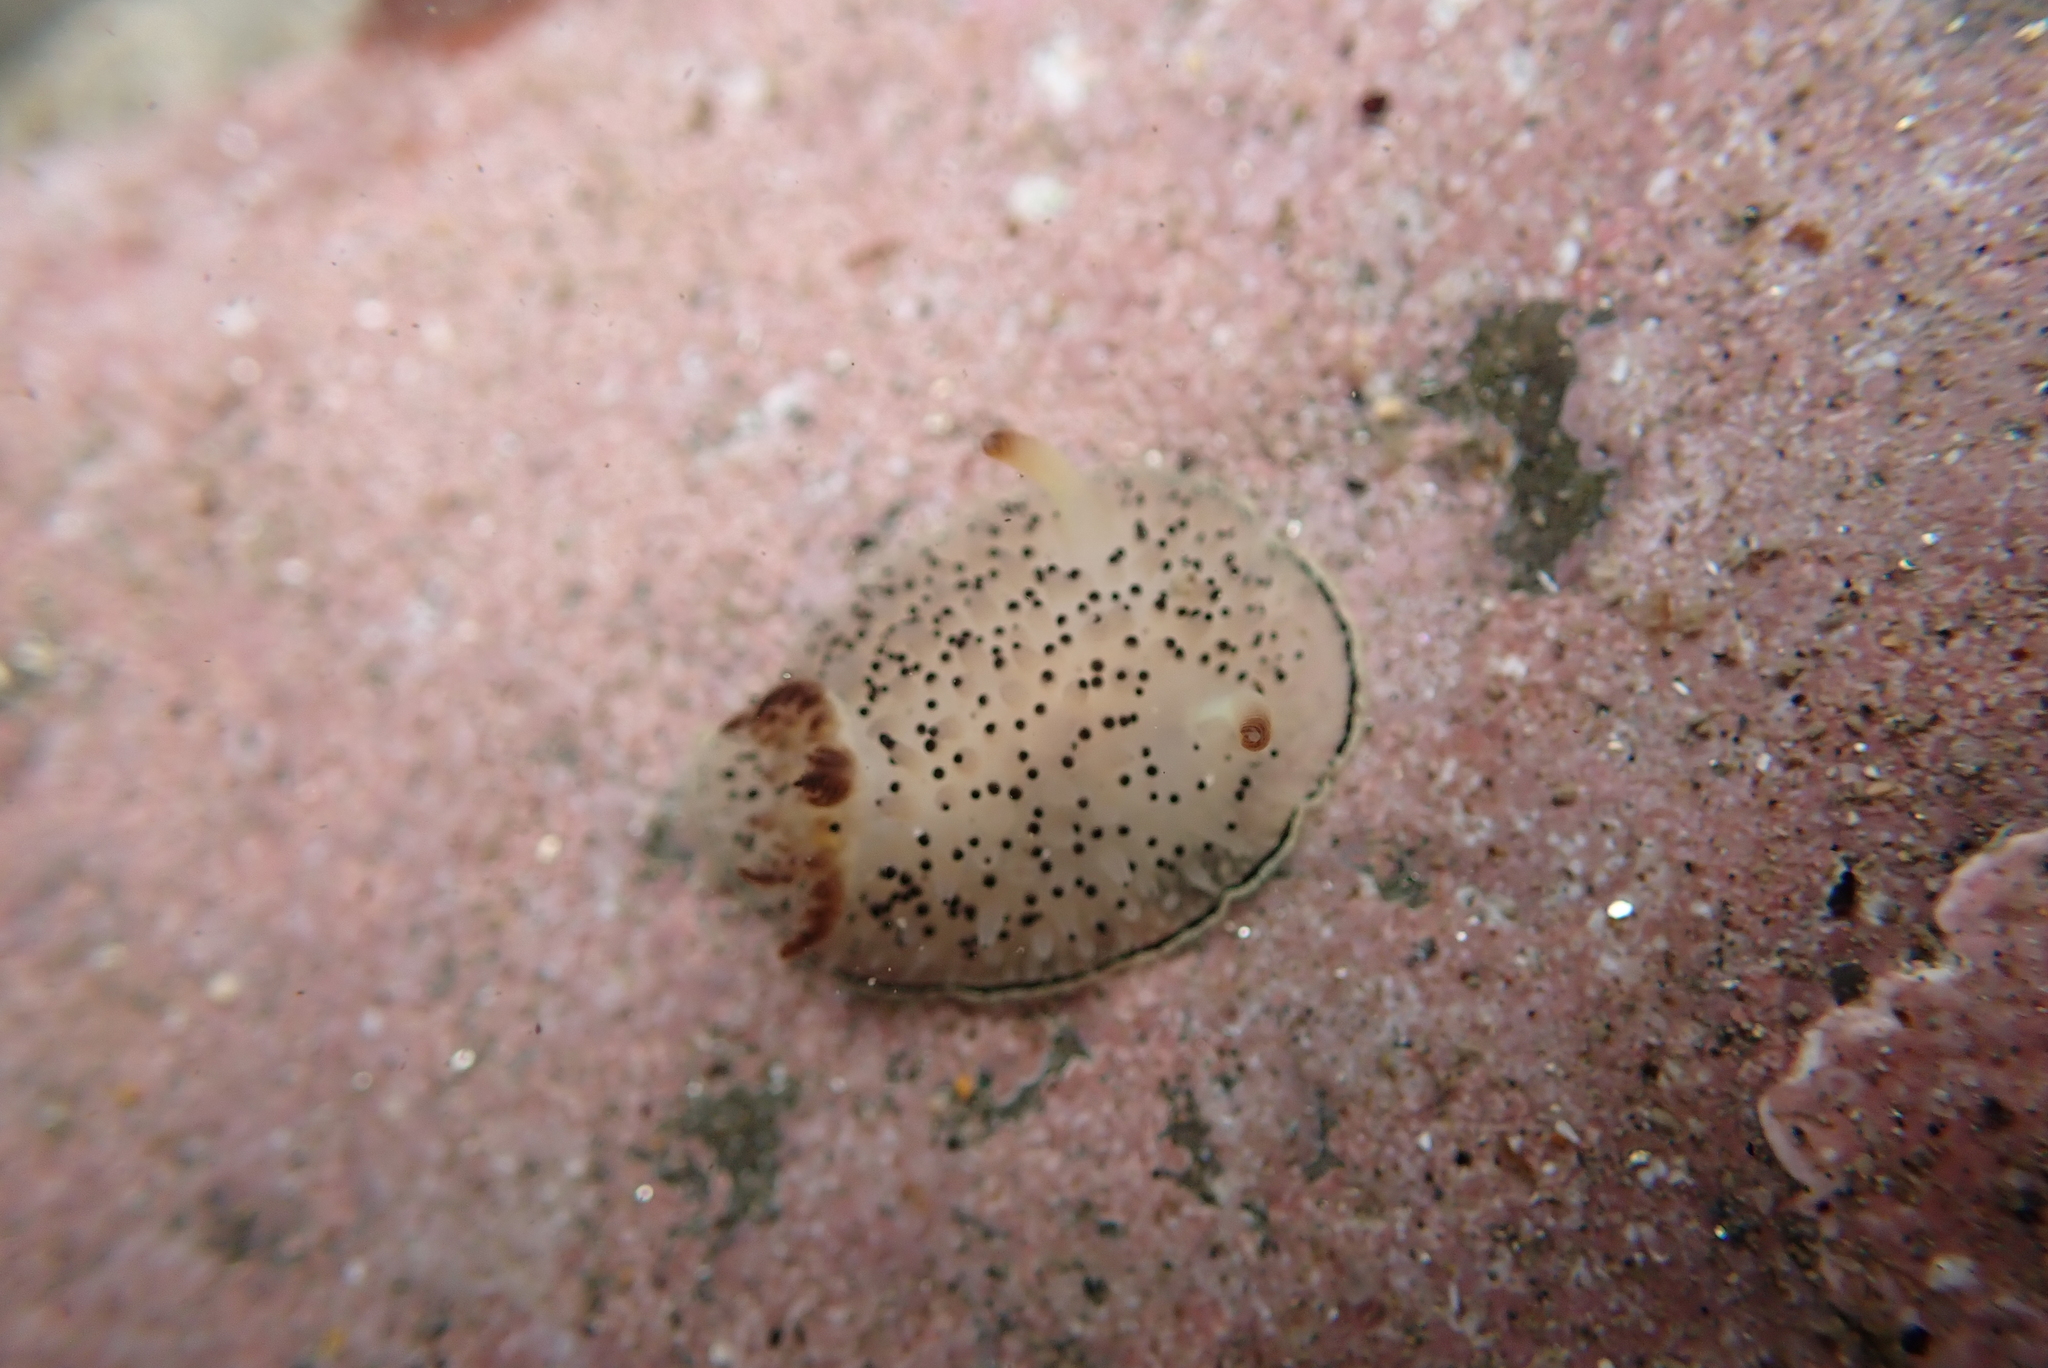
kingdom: Animalia
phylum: Mollusca
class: Gastropoda
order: Nudibranchia
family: Onchidorididae
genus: Acanthodoris
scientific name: Acanthodoris rhodoceras
